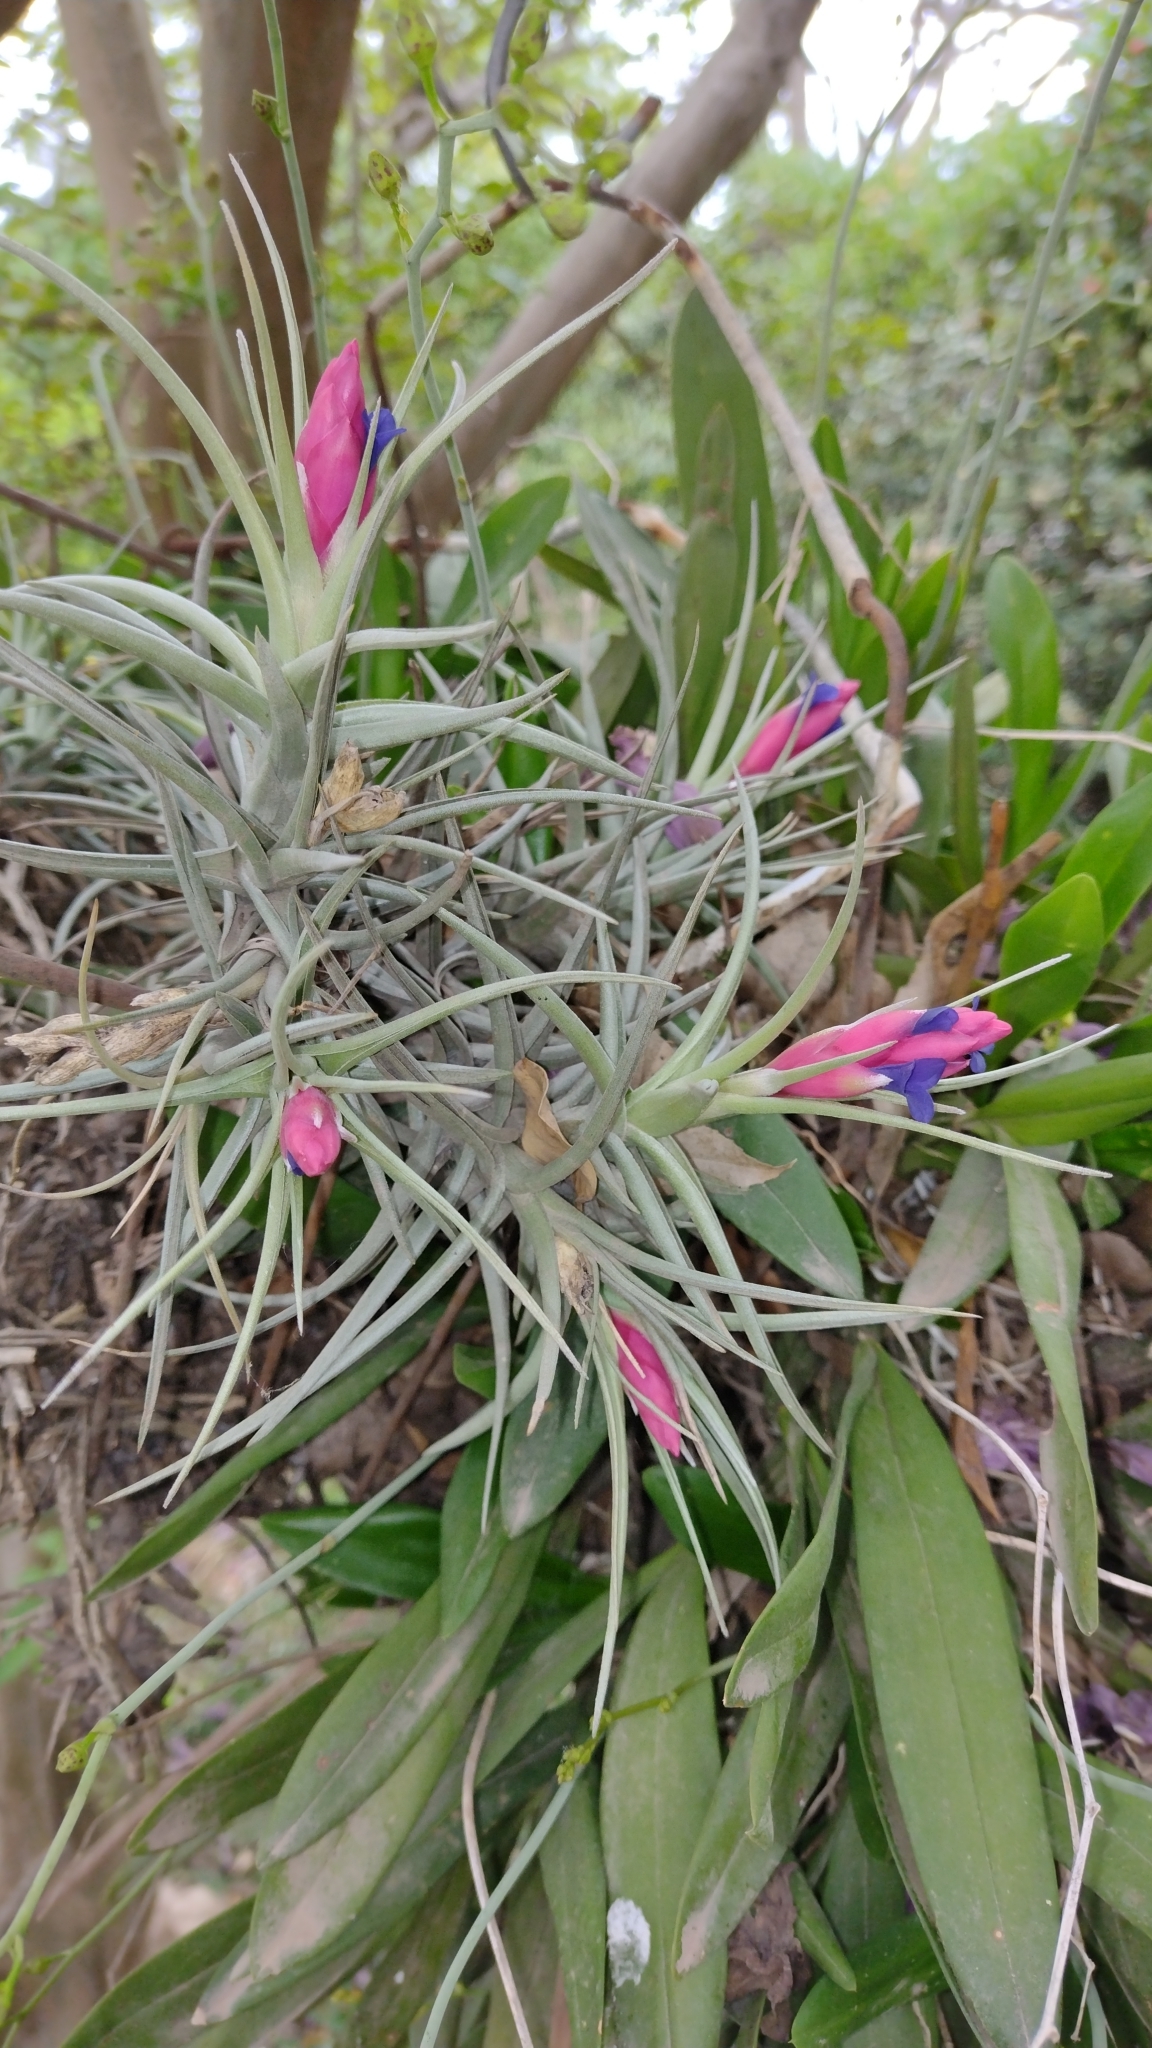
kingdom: Plantae
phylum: Tracheophyta
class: Liliopsida
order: Poales
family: Bromeliaceae
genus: Tillandsia
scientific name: Tillandsia aeranthos
